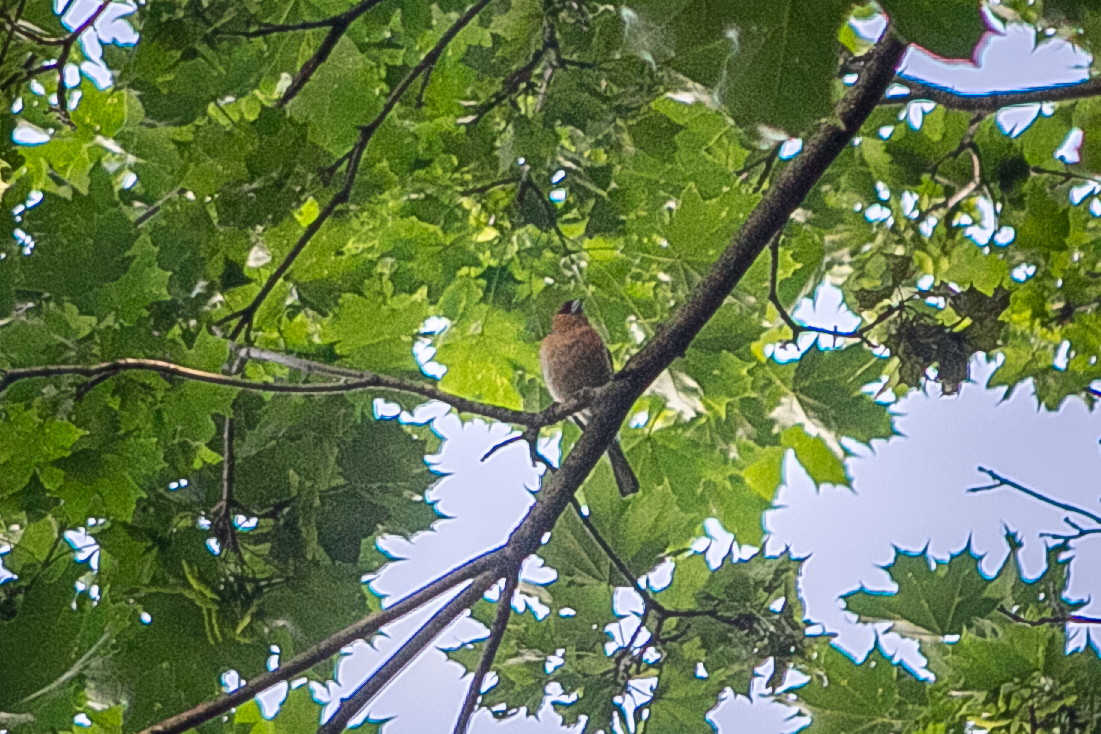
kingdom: Animalia
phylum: Chordata
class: Aves
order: Passeriformes
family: Fringillidae
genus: Fringilla
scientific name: Fringilla coelebs
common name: Common chaffinch
